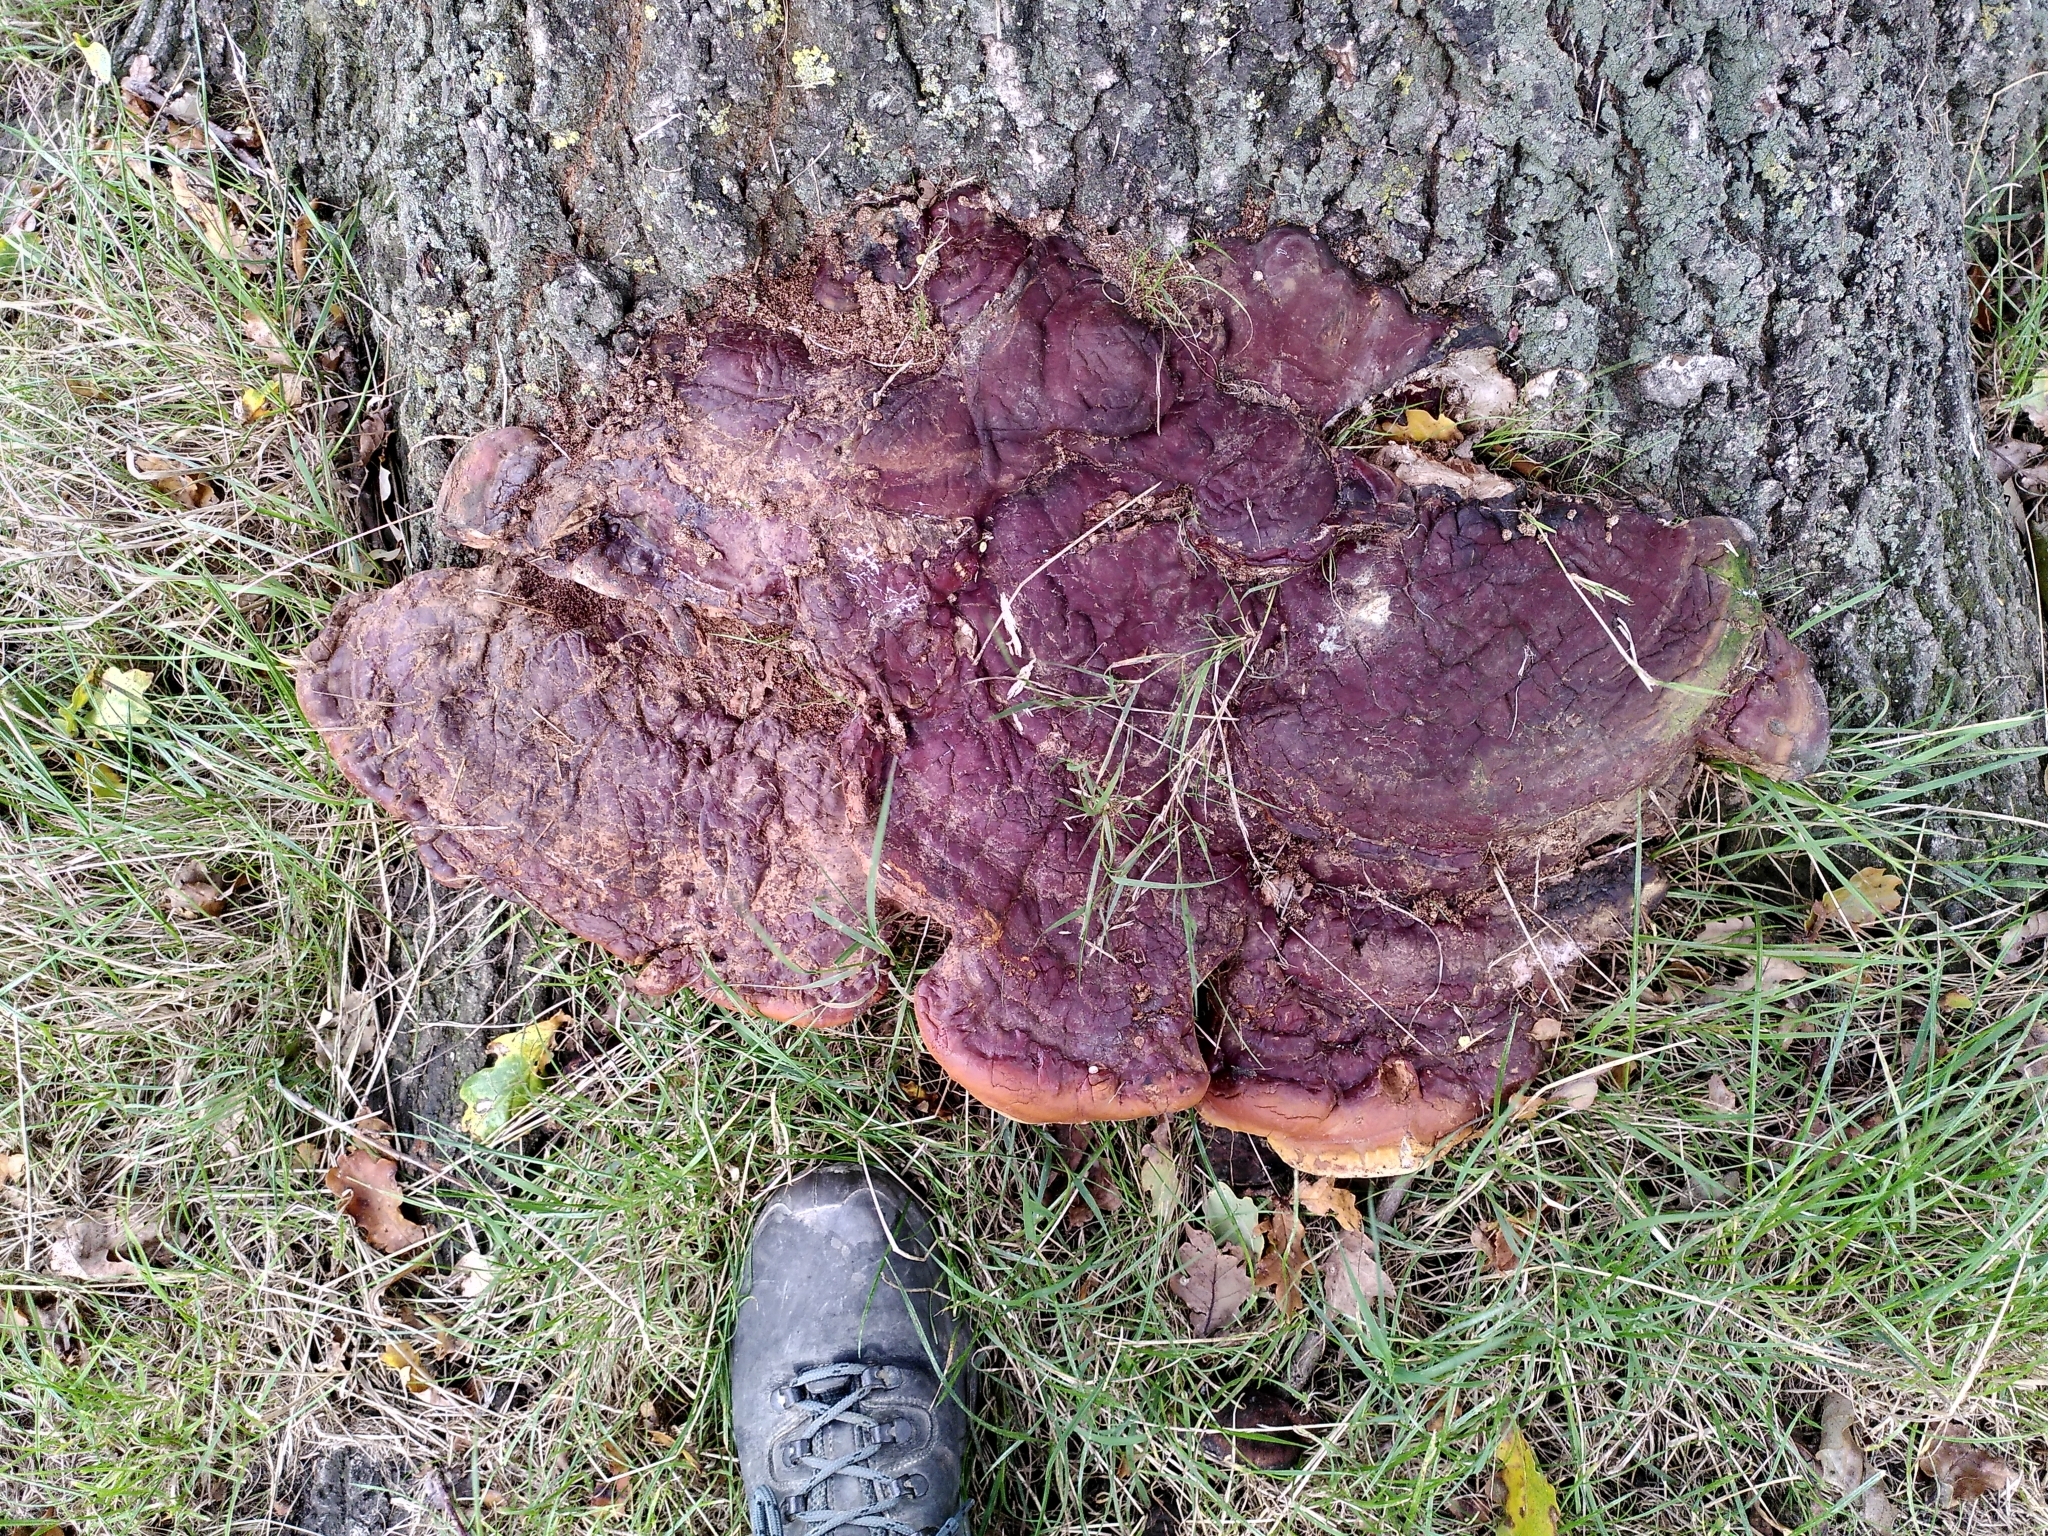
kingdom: Fungi
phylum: Basidiomycota
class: Agaricomycetes
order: Polyporales
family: Polyporaceae
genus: Ganoderma
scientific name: Ganoderma resinaceum
